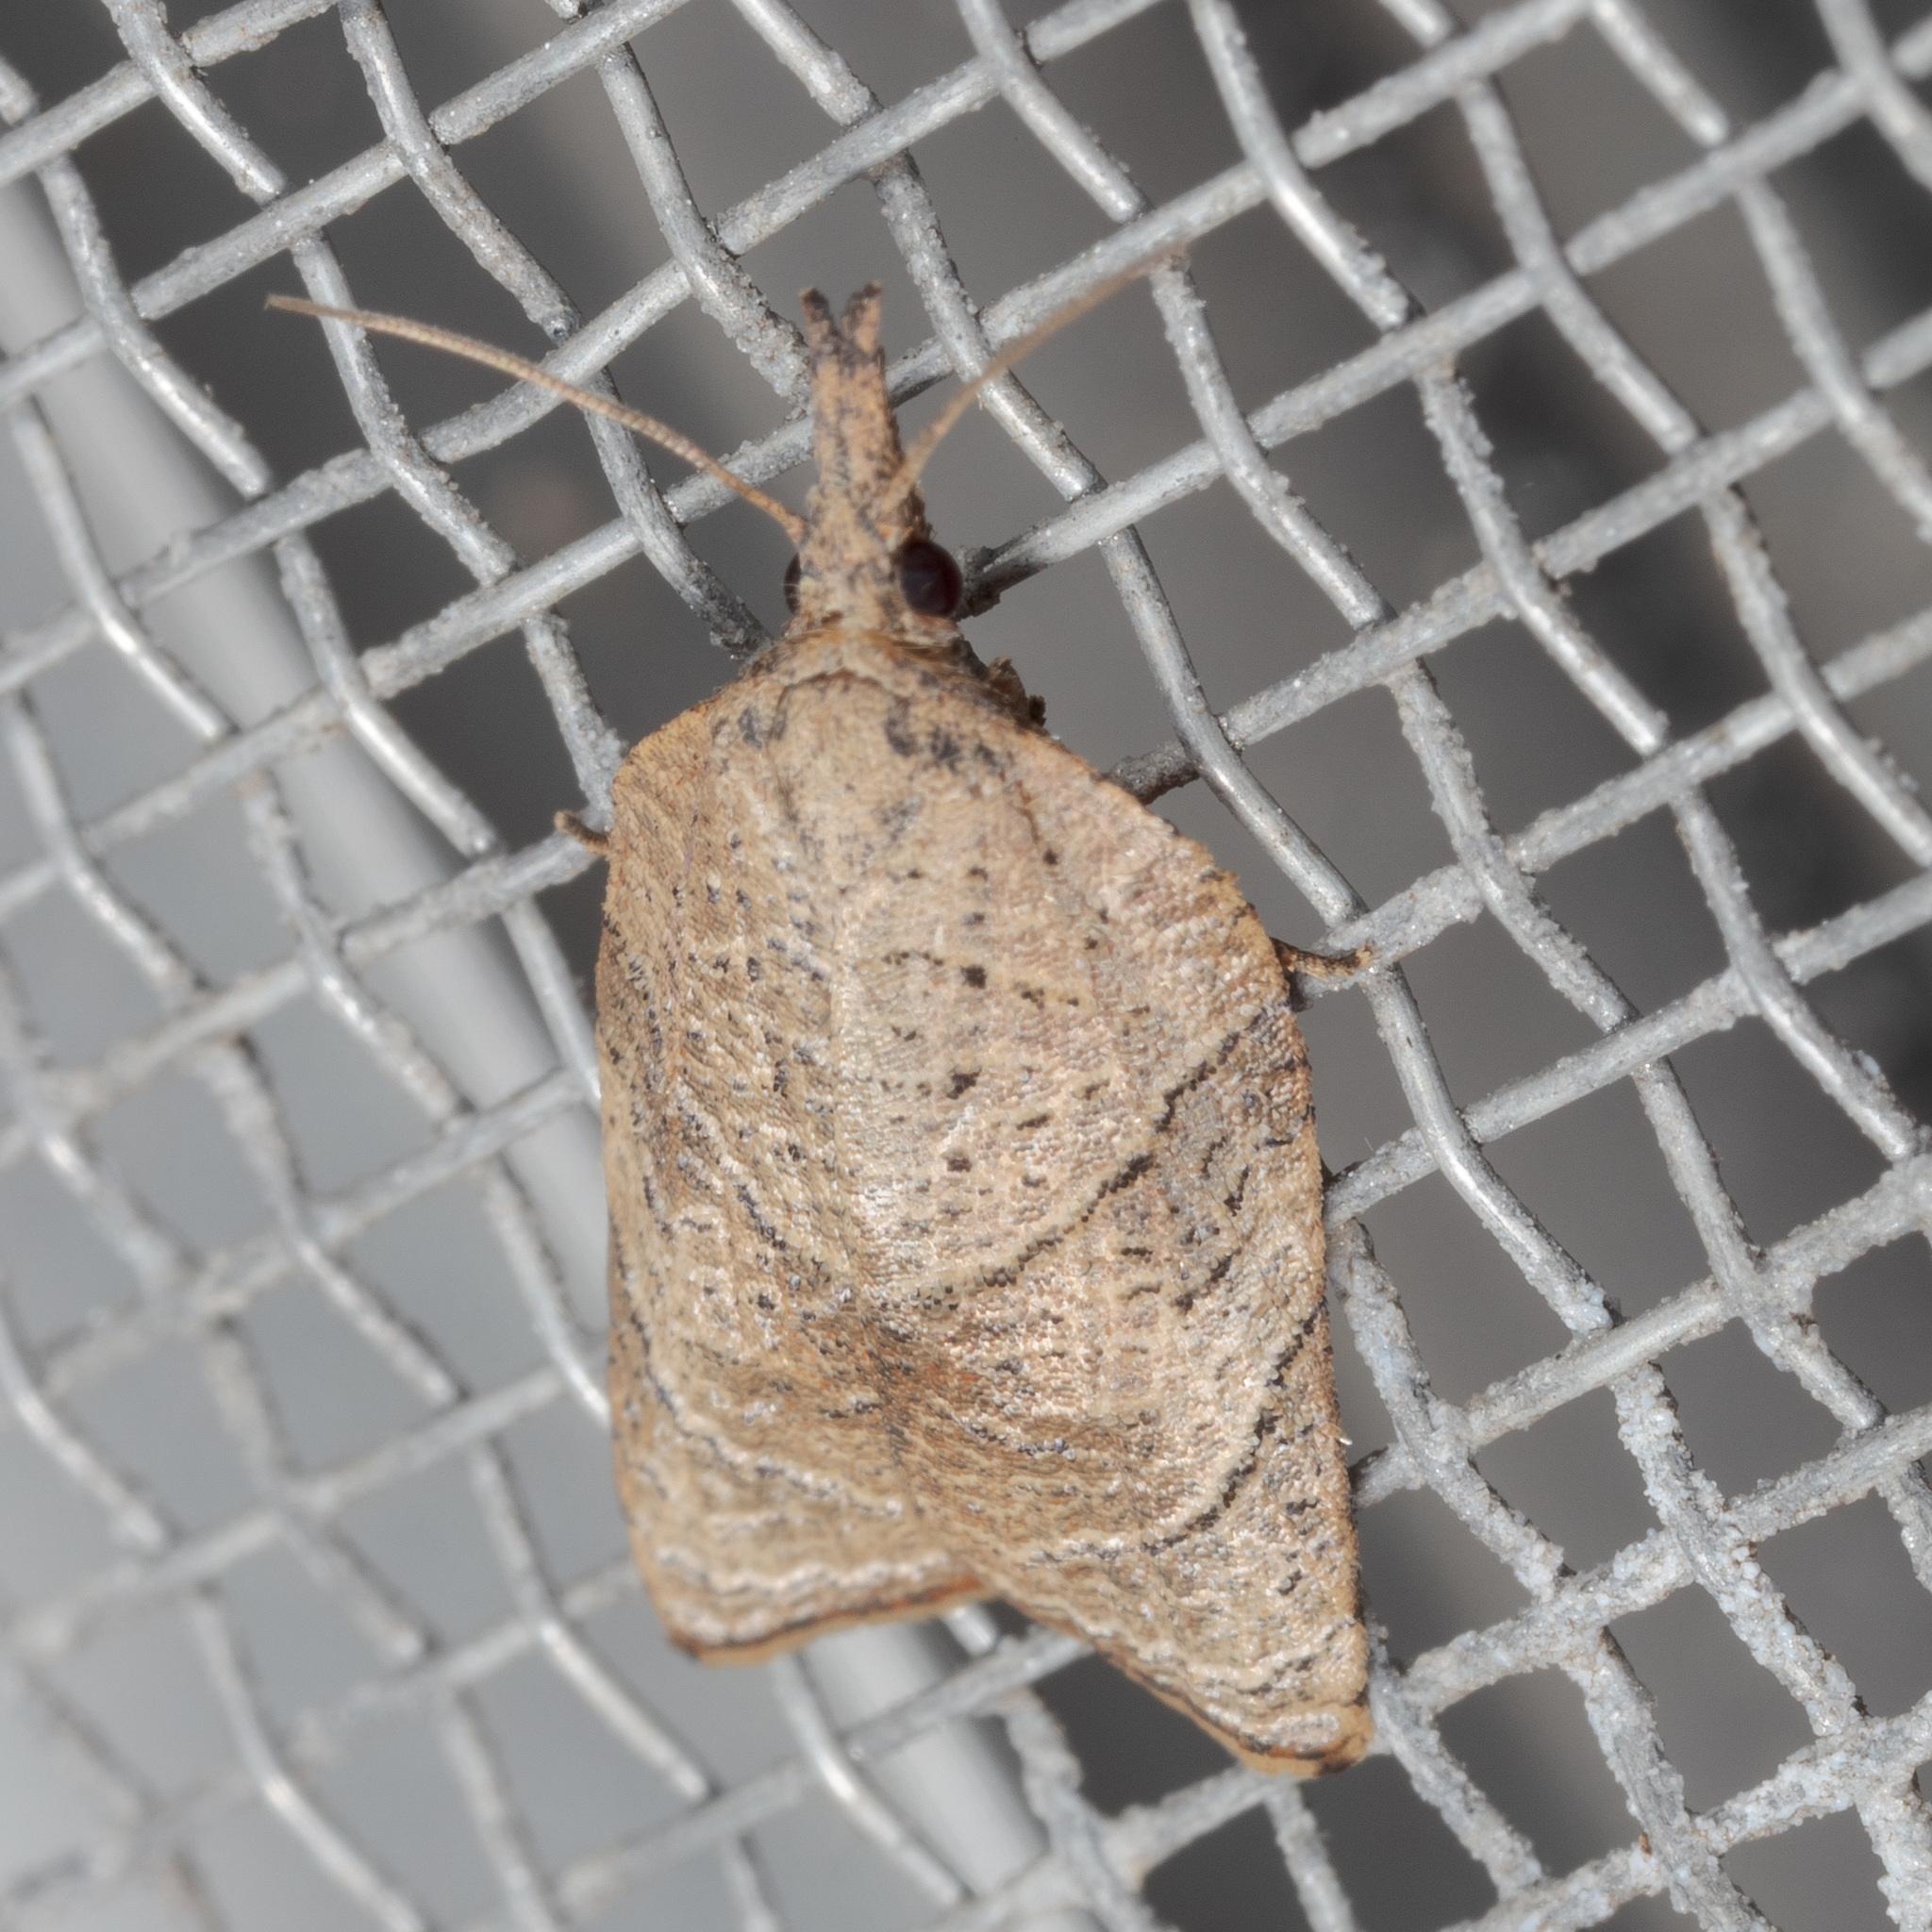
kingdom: Animalia
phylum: Arthropoda
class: Insecta
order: Lepidoptera
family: Tortricidae
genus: Platynota
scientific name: Platynota rostrana
